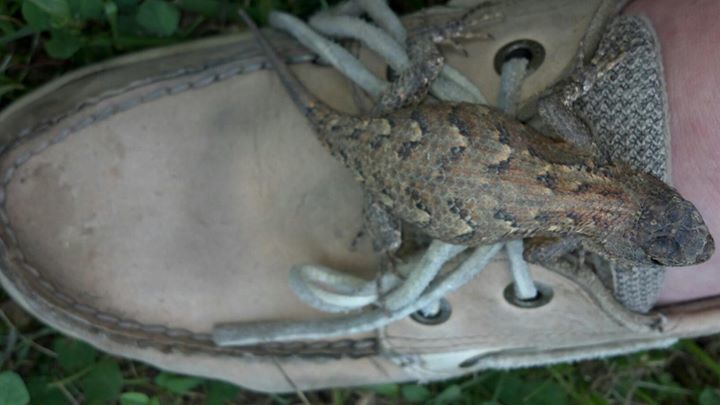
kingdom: Animalia
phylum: Chordata
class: Squamata
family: Phrynosomatidae
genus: Sceloporus
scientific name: Sceloporus undulatus
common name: Eastern fence lizard
